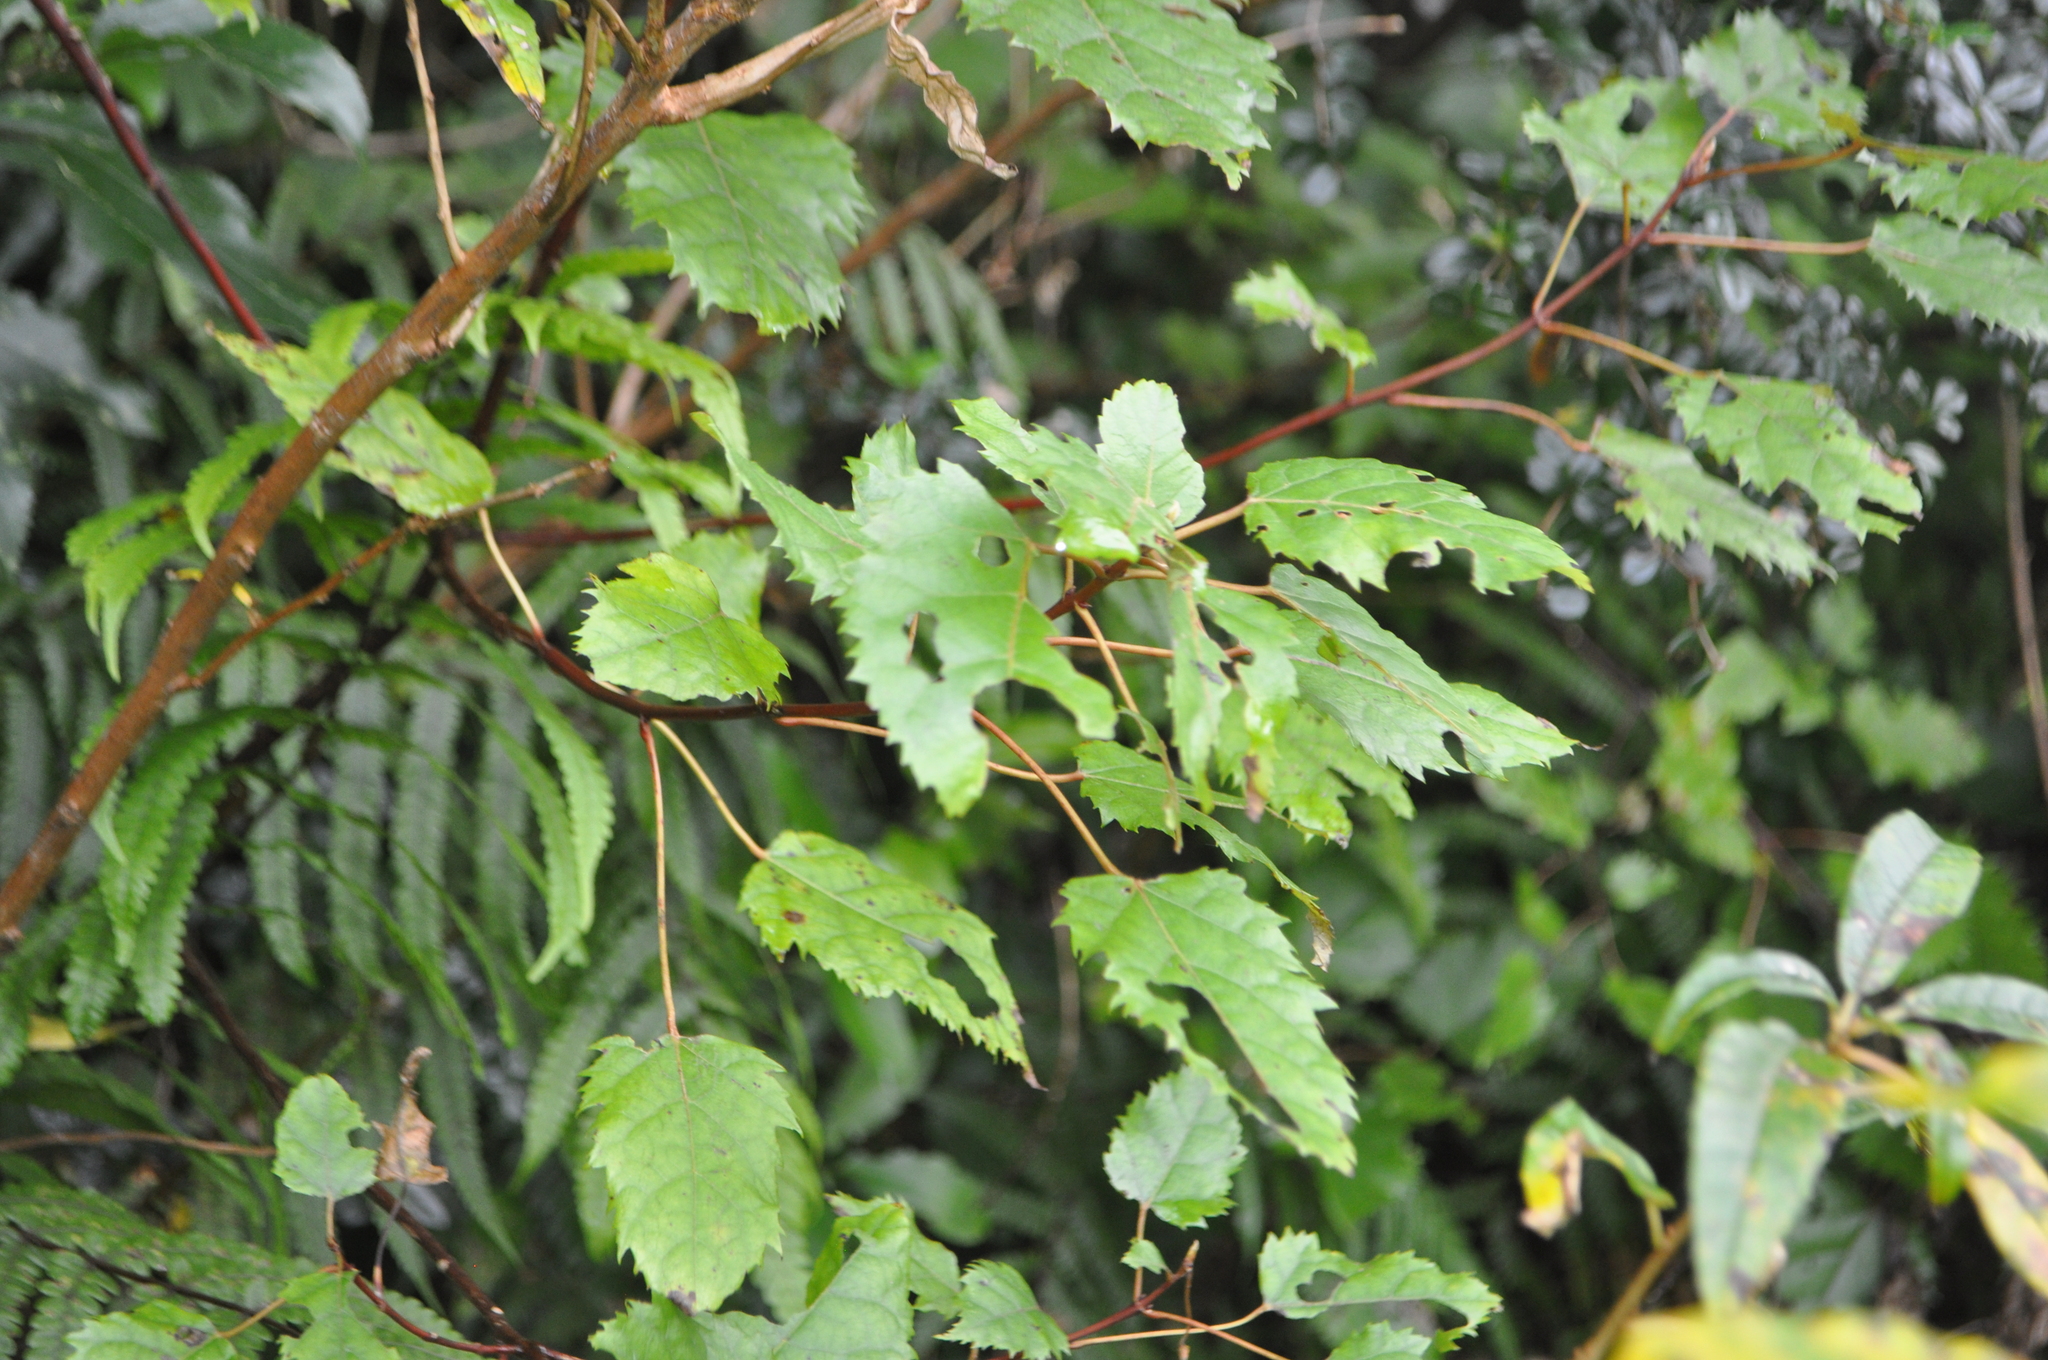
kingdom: Plantae
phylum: Tracheophyta
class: Magnoliopsida
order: Oxalidales
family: Elaeocarpaceae
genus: Aristotelia
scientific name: Aristotelia serrata
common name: New zealand wineberry
